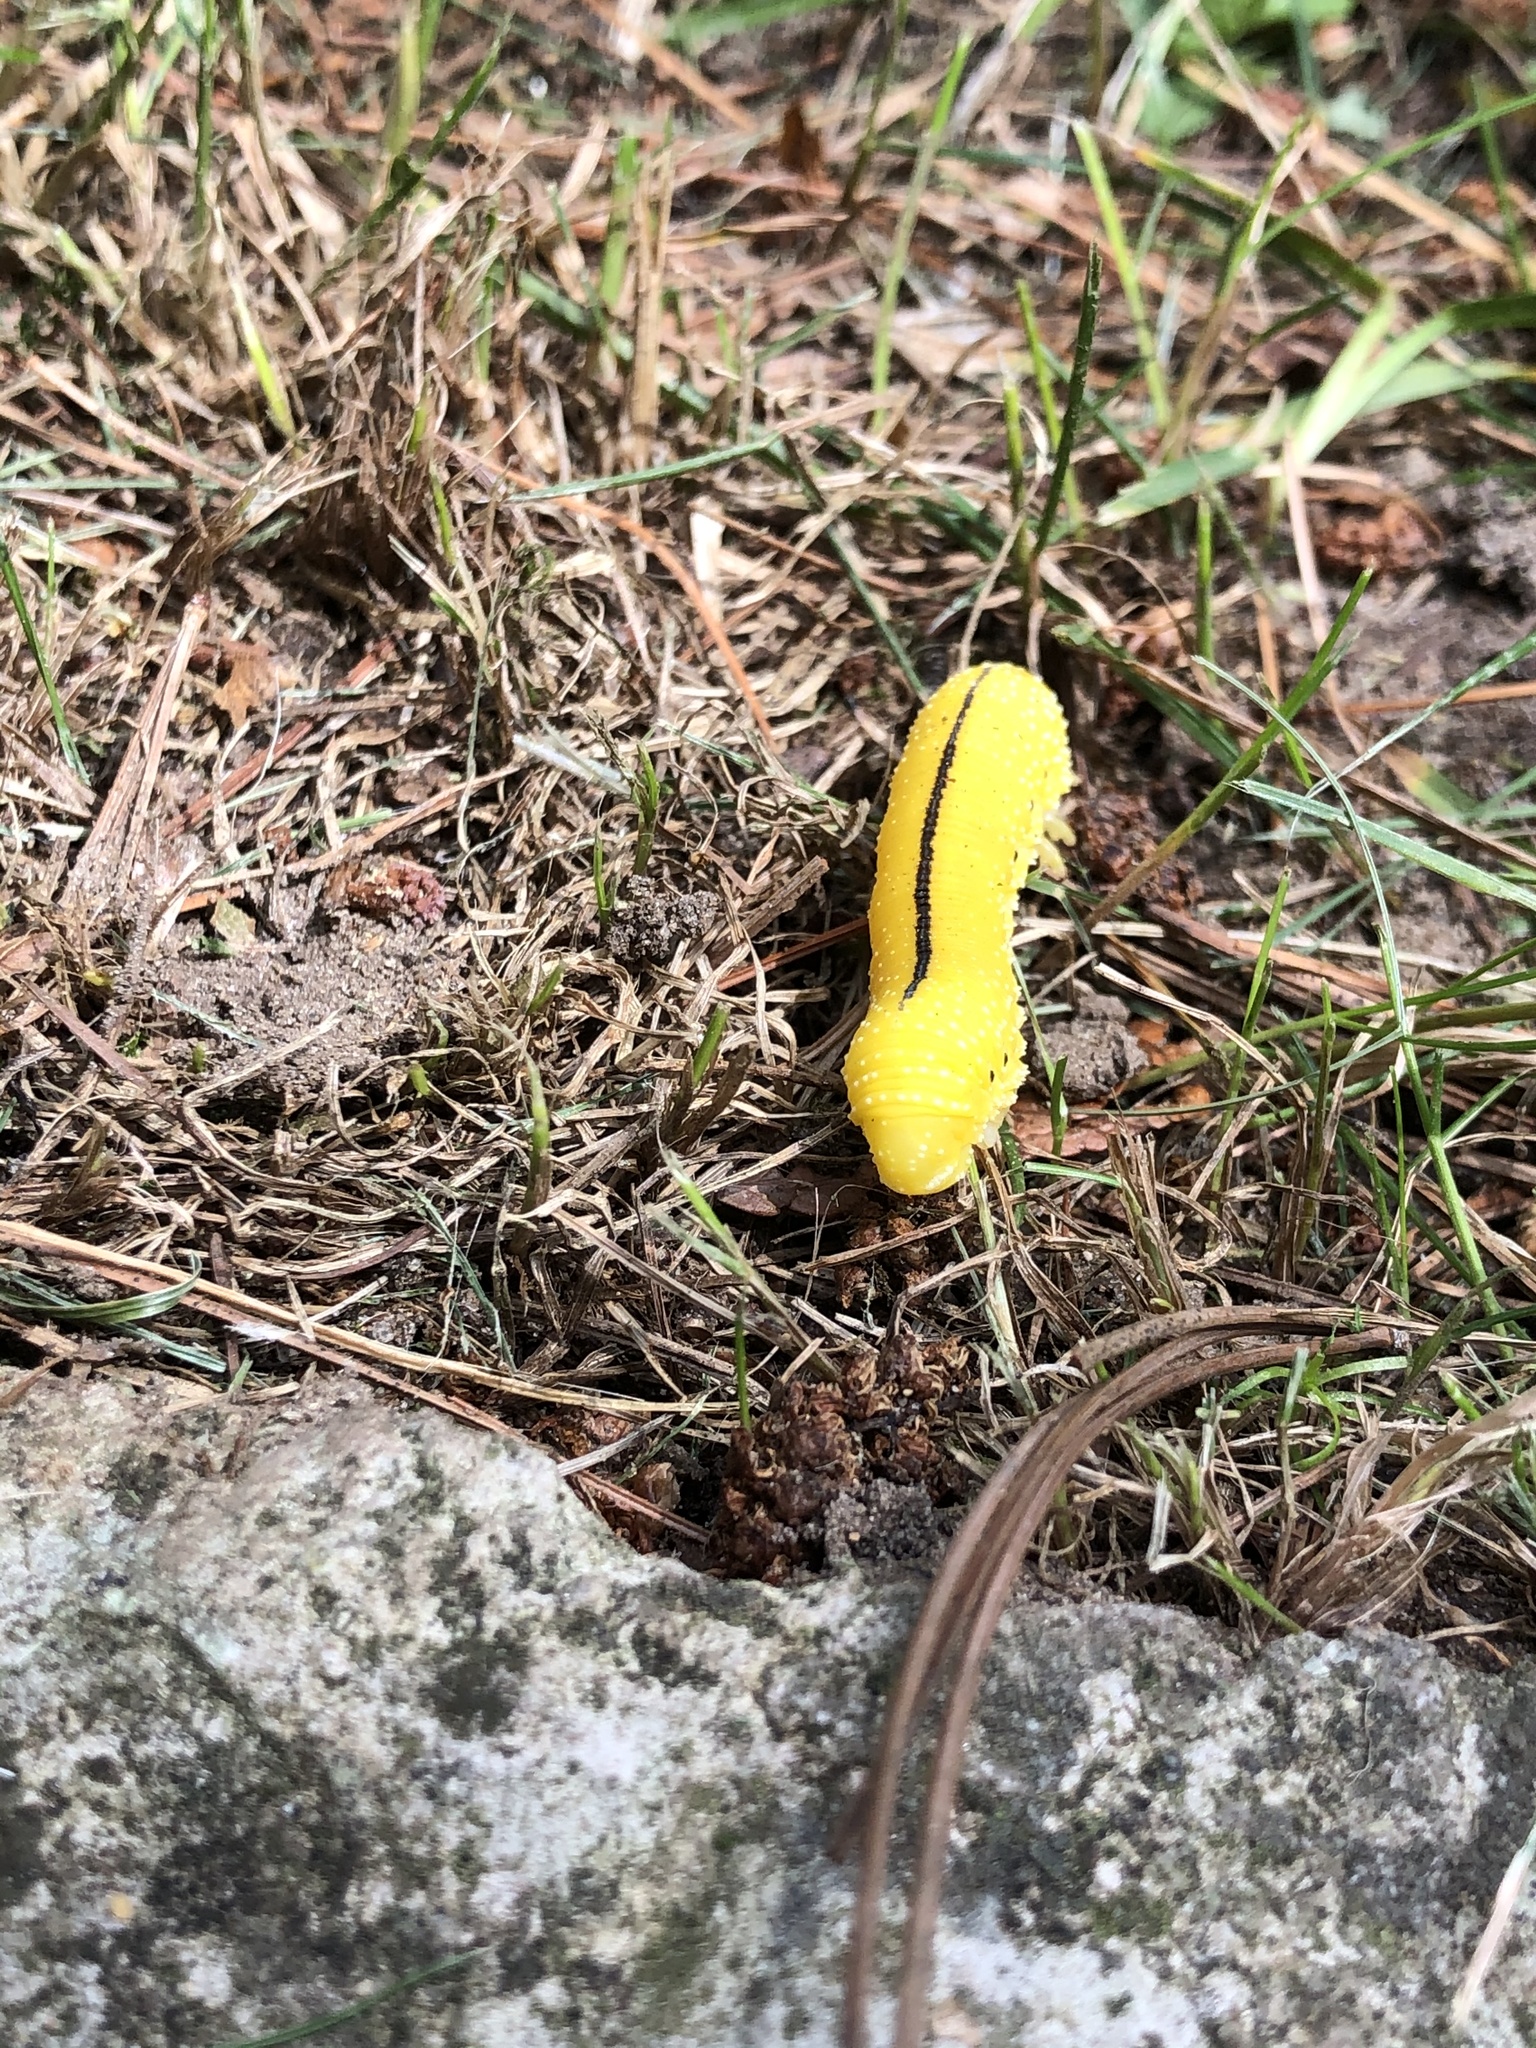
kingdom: Animalia
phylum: Arthropoda
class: Insecta
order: Hymenoptera
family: Cimbicidae
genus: Cimbex
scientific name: Cimbex americana
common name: Elm sawfly
